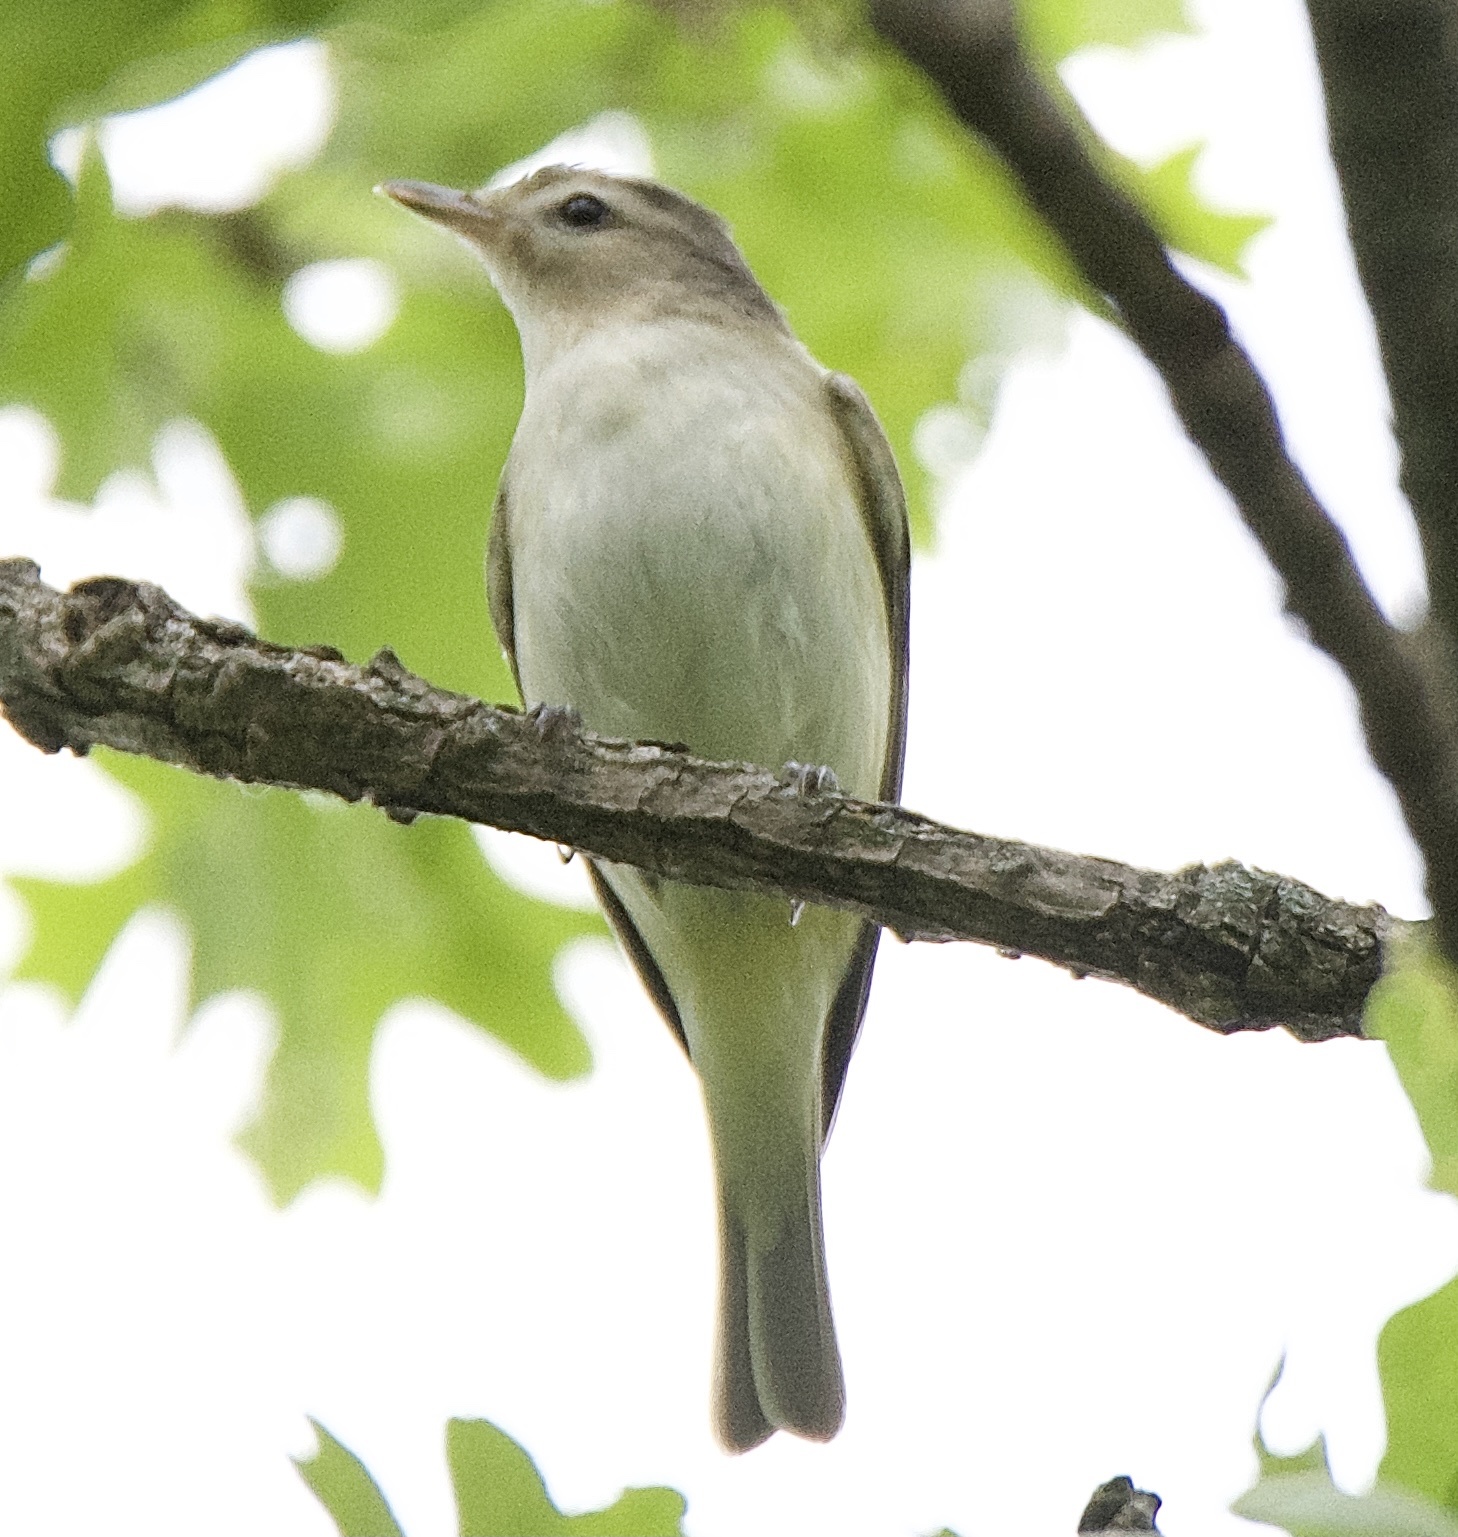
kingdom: Animalia
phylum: Chordata
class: Aves
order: Passeriformes
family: Vireonidae
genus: Vireo
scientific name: Vireo gilvus
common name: Warbling vireo
